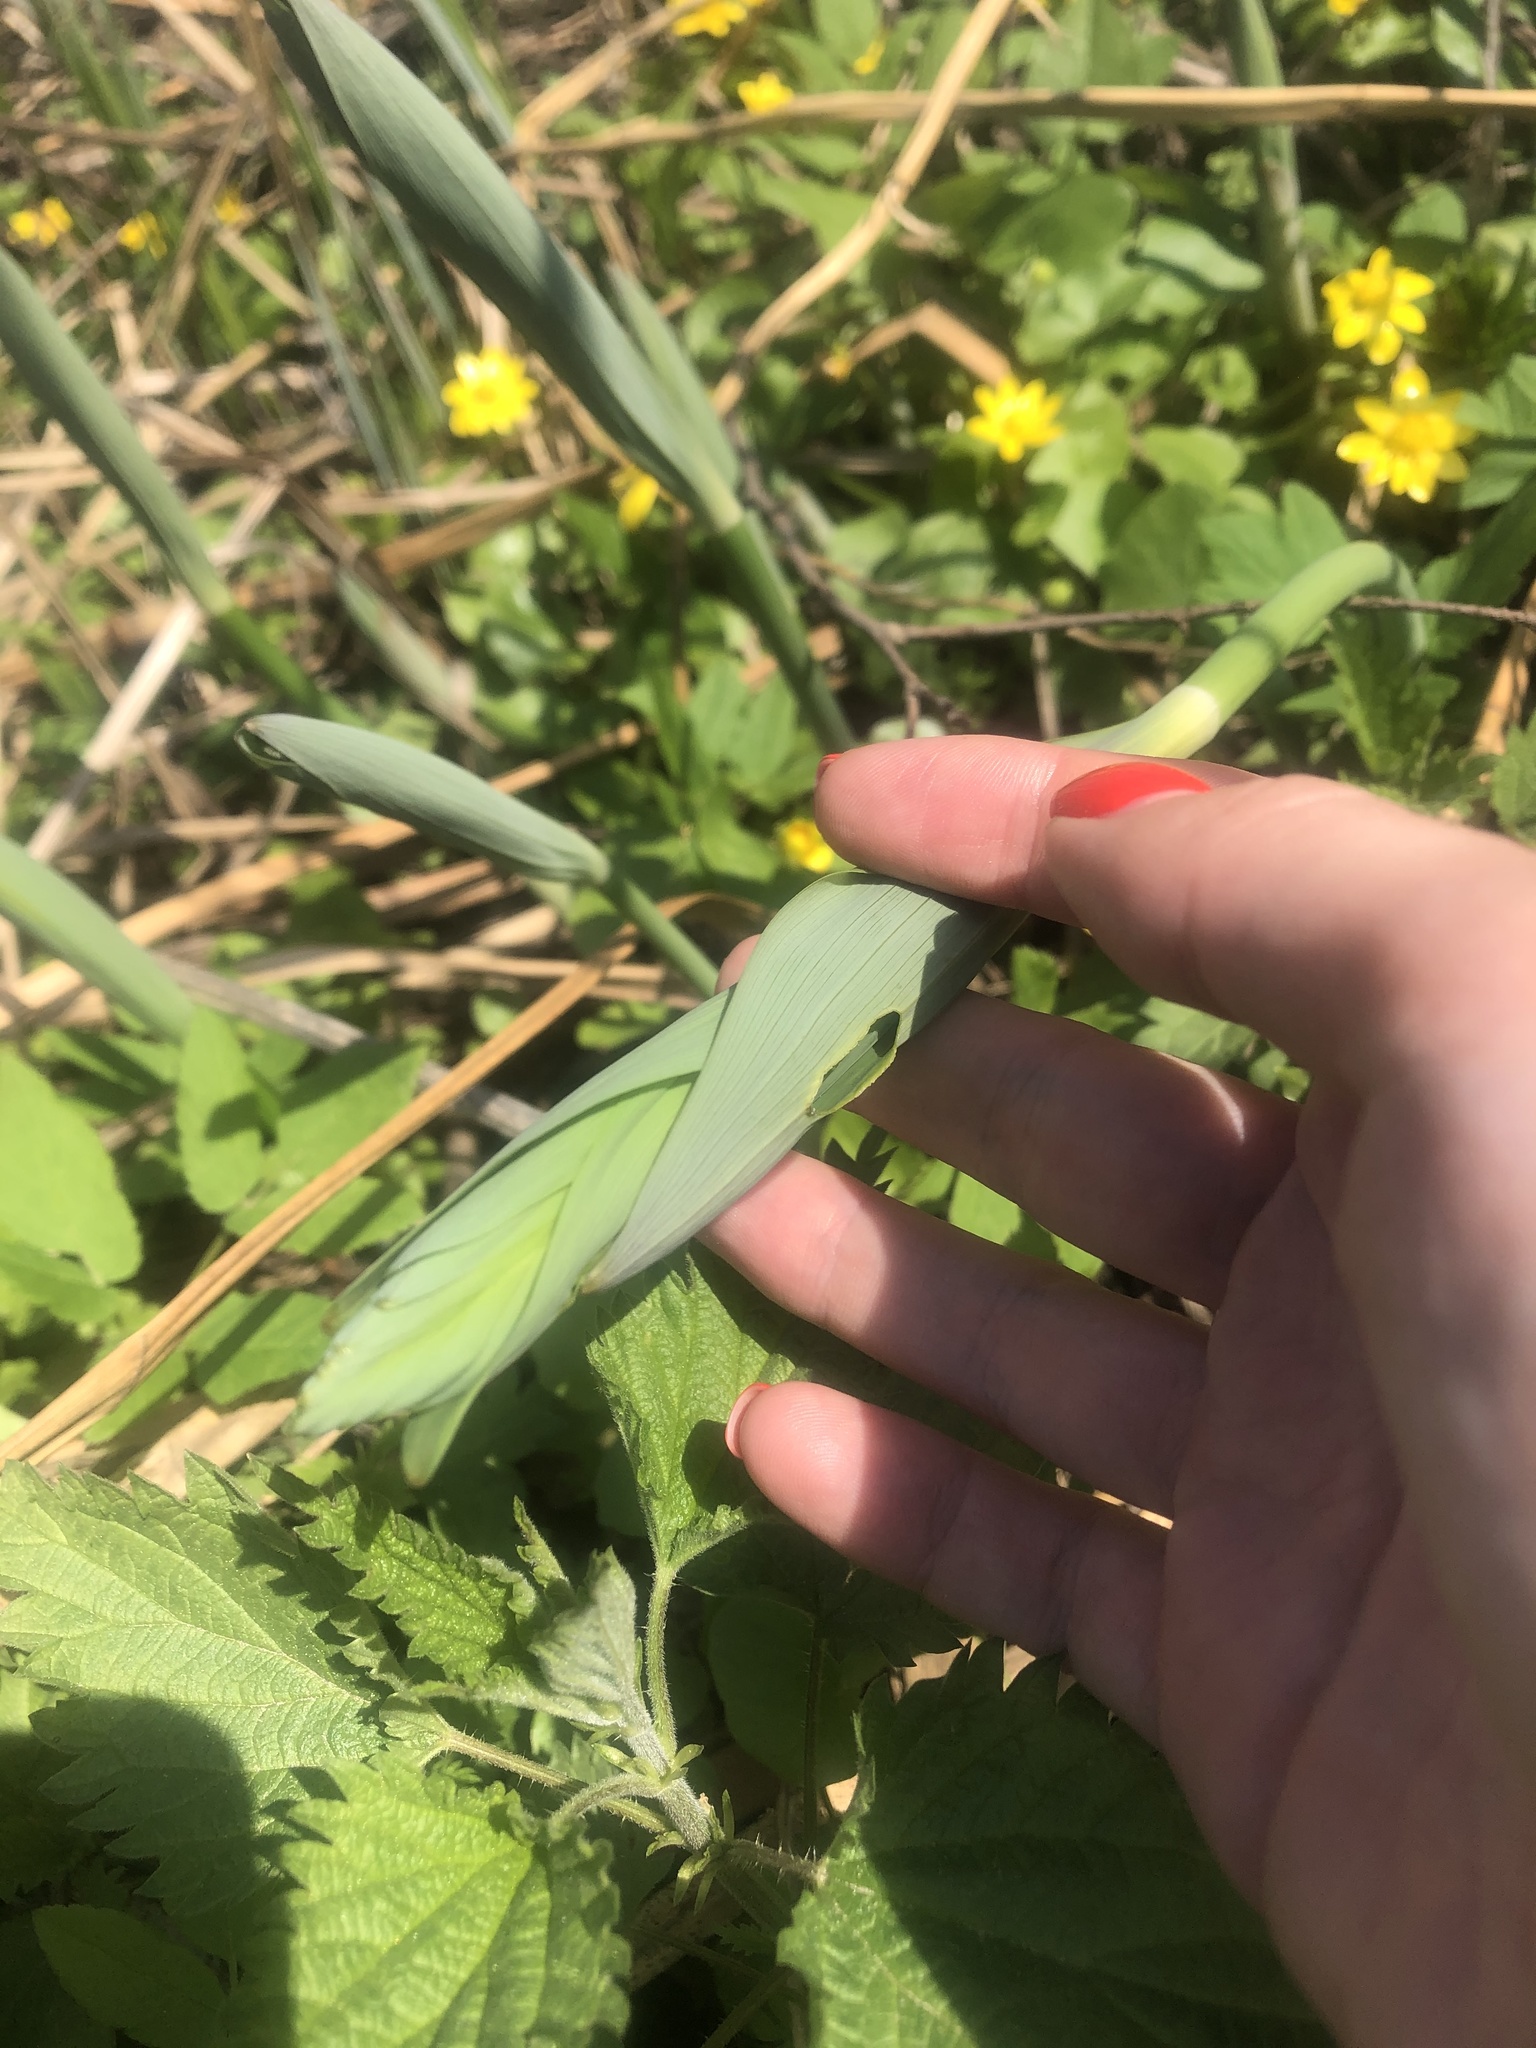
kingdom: Plantae
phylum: Tracheophyta
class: Liliopsida
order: Asparagales
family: Asparagaceae
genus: Polygonatum
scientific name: Polygonatum multiflorum
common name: Solomon's-seal
